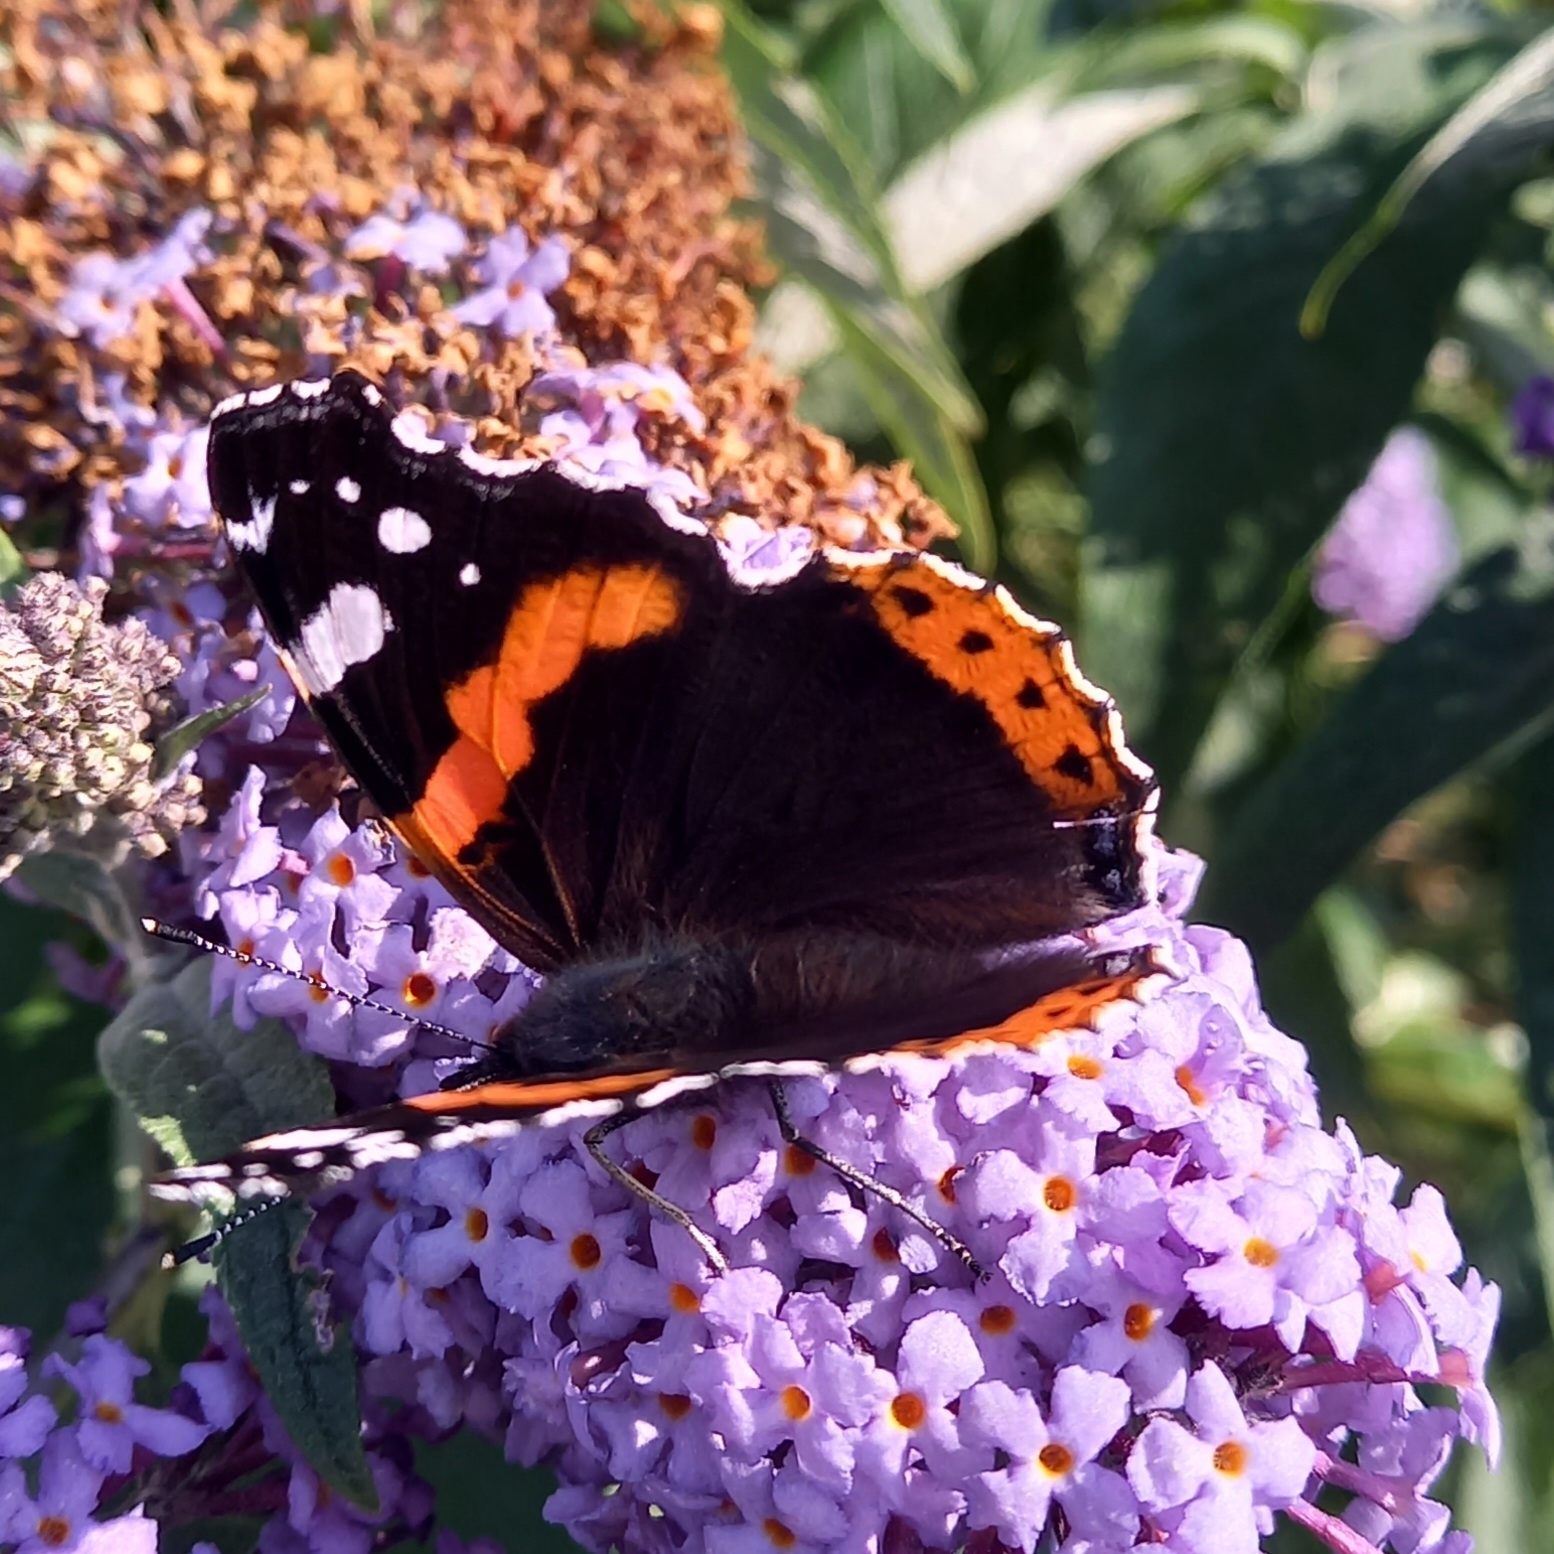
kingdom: Animalia
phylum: Arthropoda
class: Insecta
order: Lepidoptera
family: Nymphalidae
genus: Vanessa
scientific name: Vanessa atalanta
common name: Red admiral
